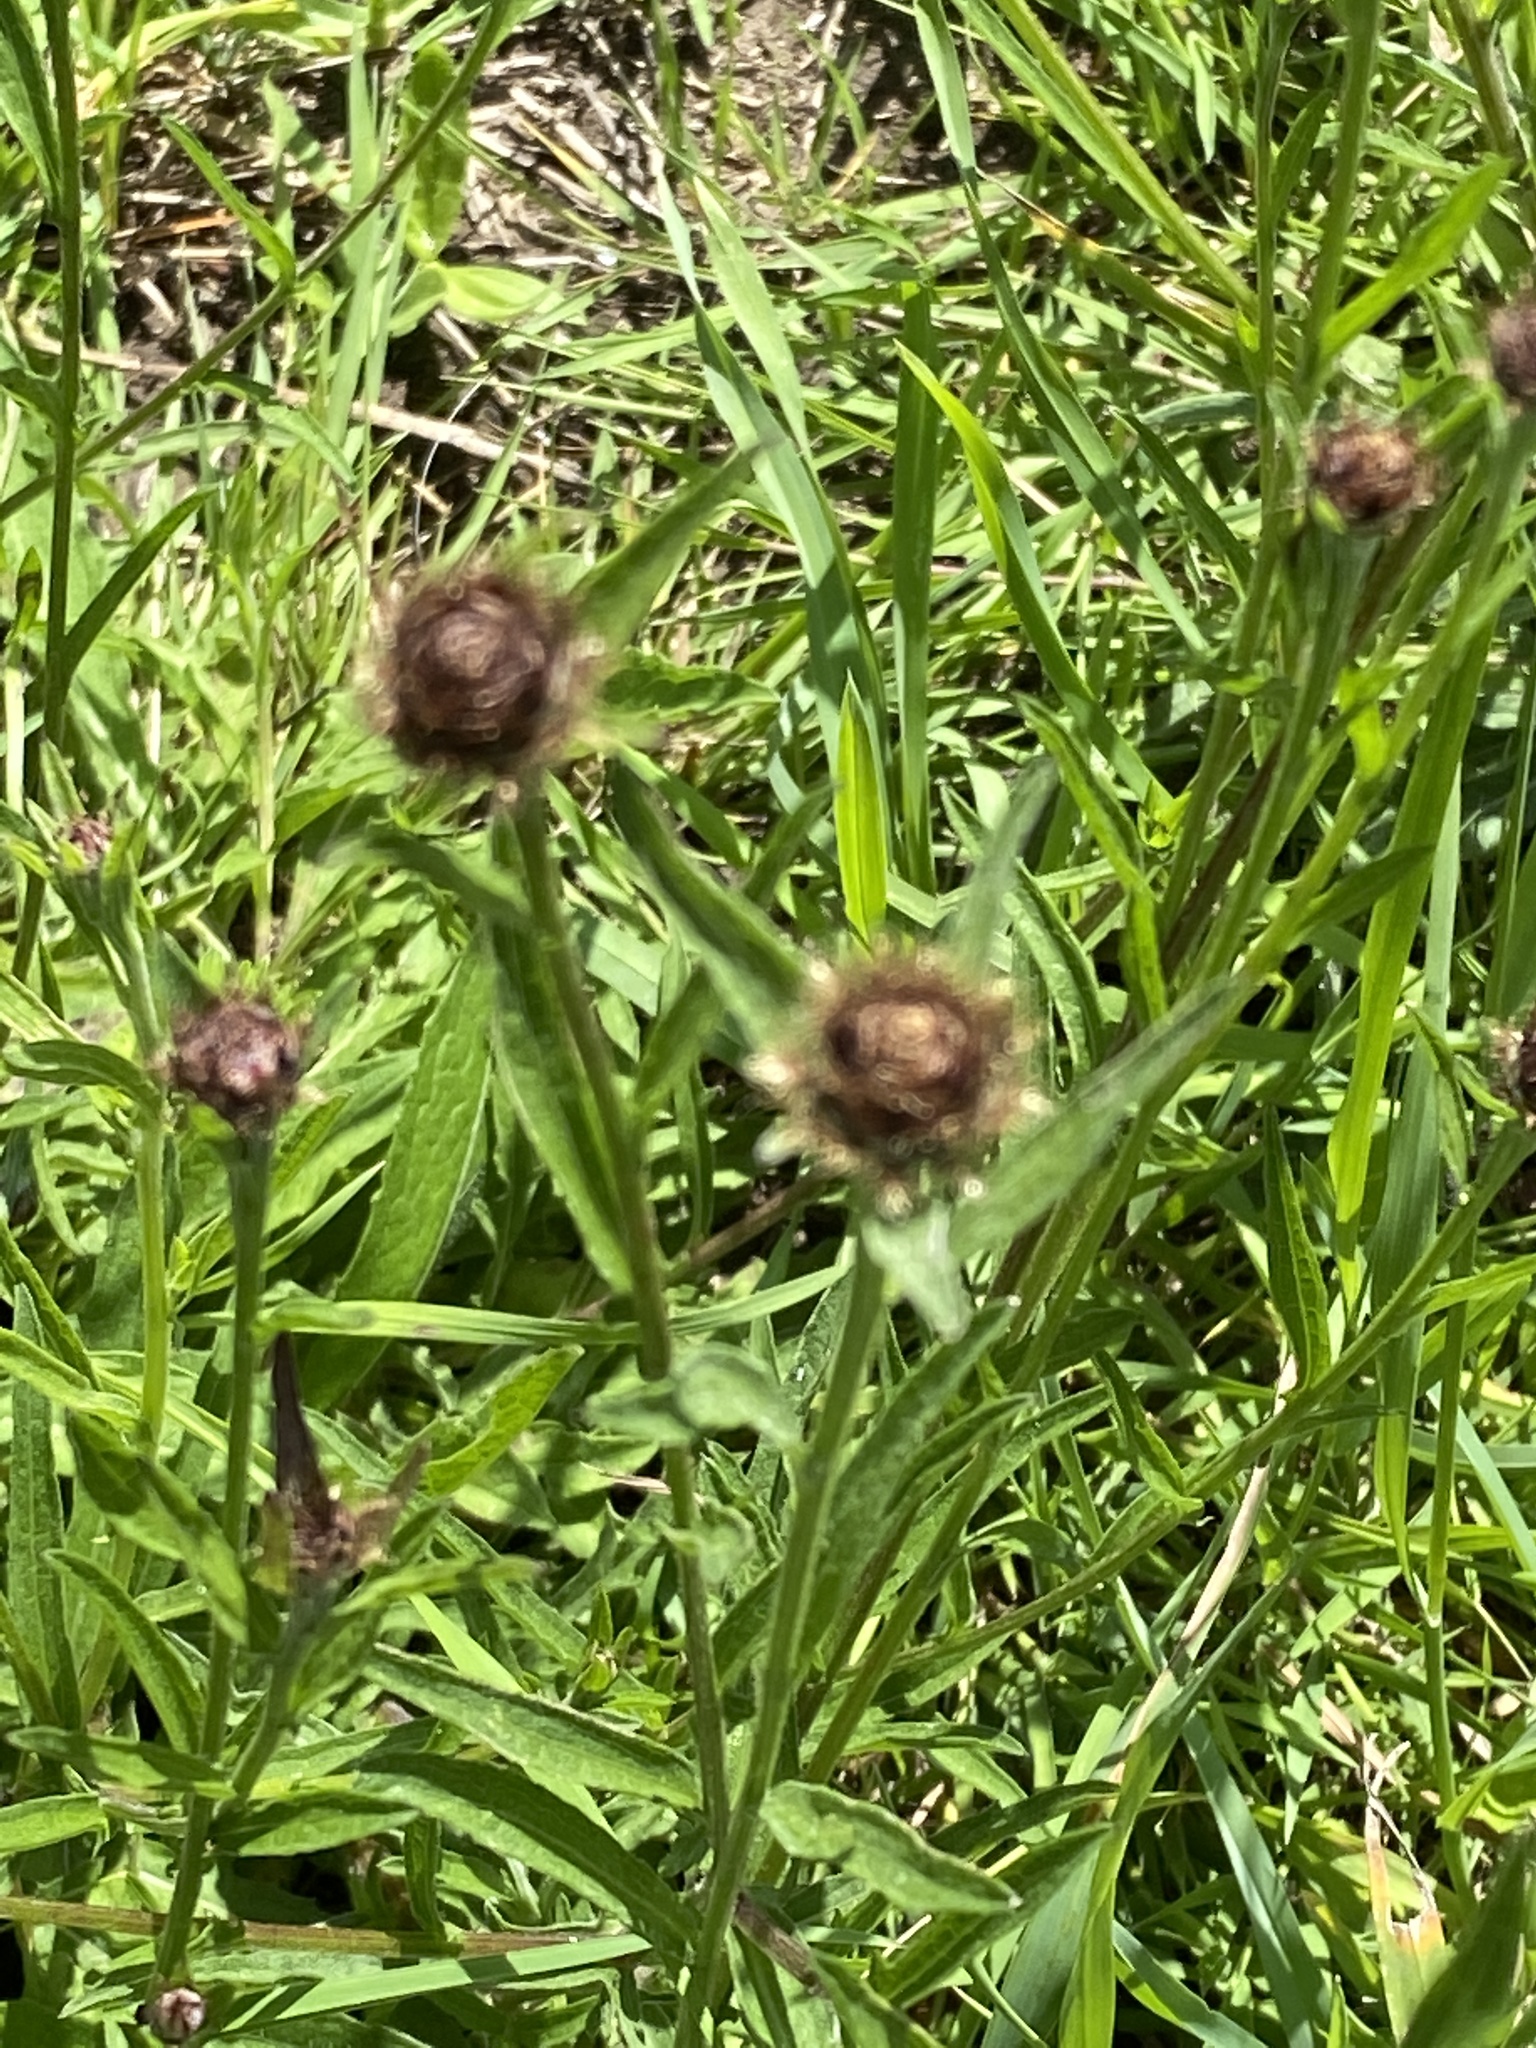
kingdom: Plantae
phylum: Tracheophyta
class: Magnoliopsida
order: Asterales
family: Asteraceae
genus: Centaurea
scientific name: Centaurea nigra
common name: Lesser knapweed
